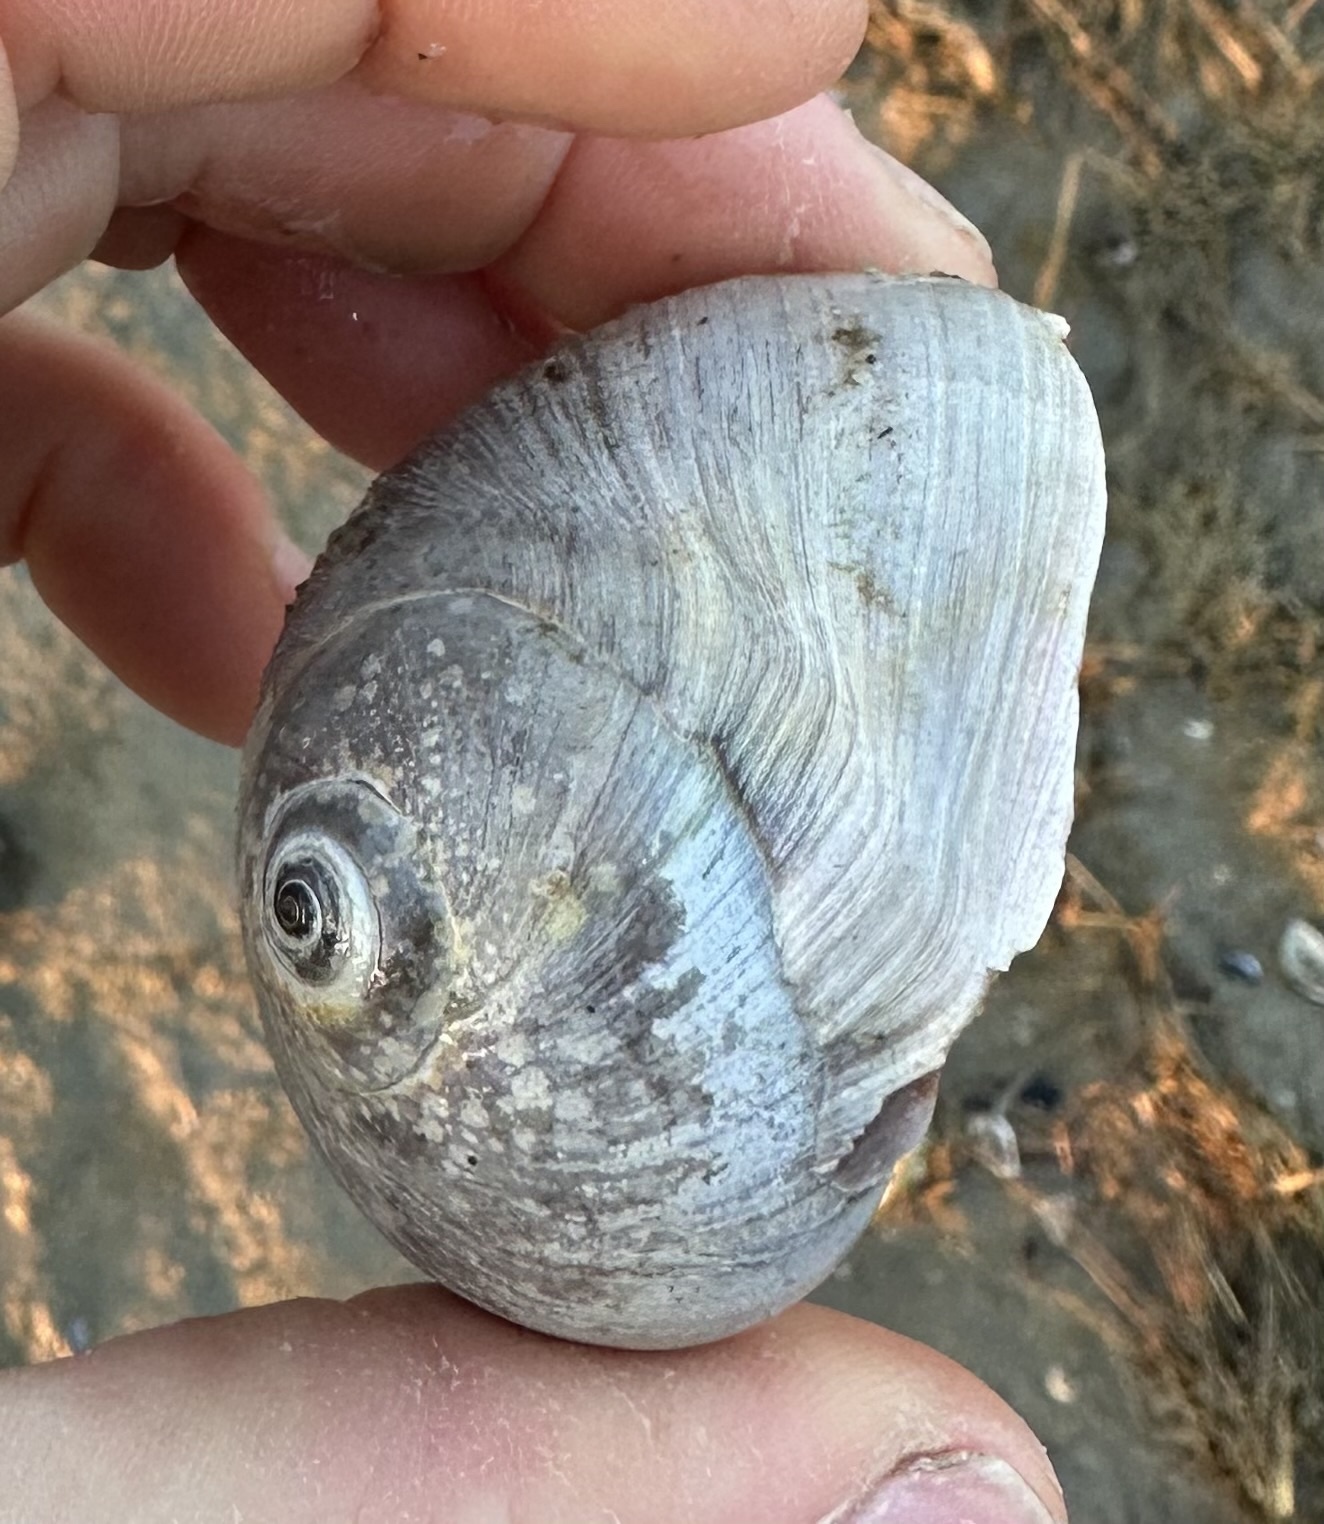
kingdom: Animalia
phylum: Mollusca
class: Gastropoda
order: Littorinimorpha
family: Naticidae
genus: Neverita
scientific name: Neverita duplicata
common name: Lobed moonsnail
